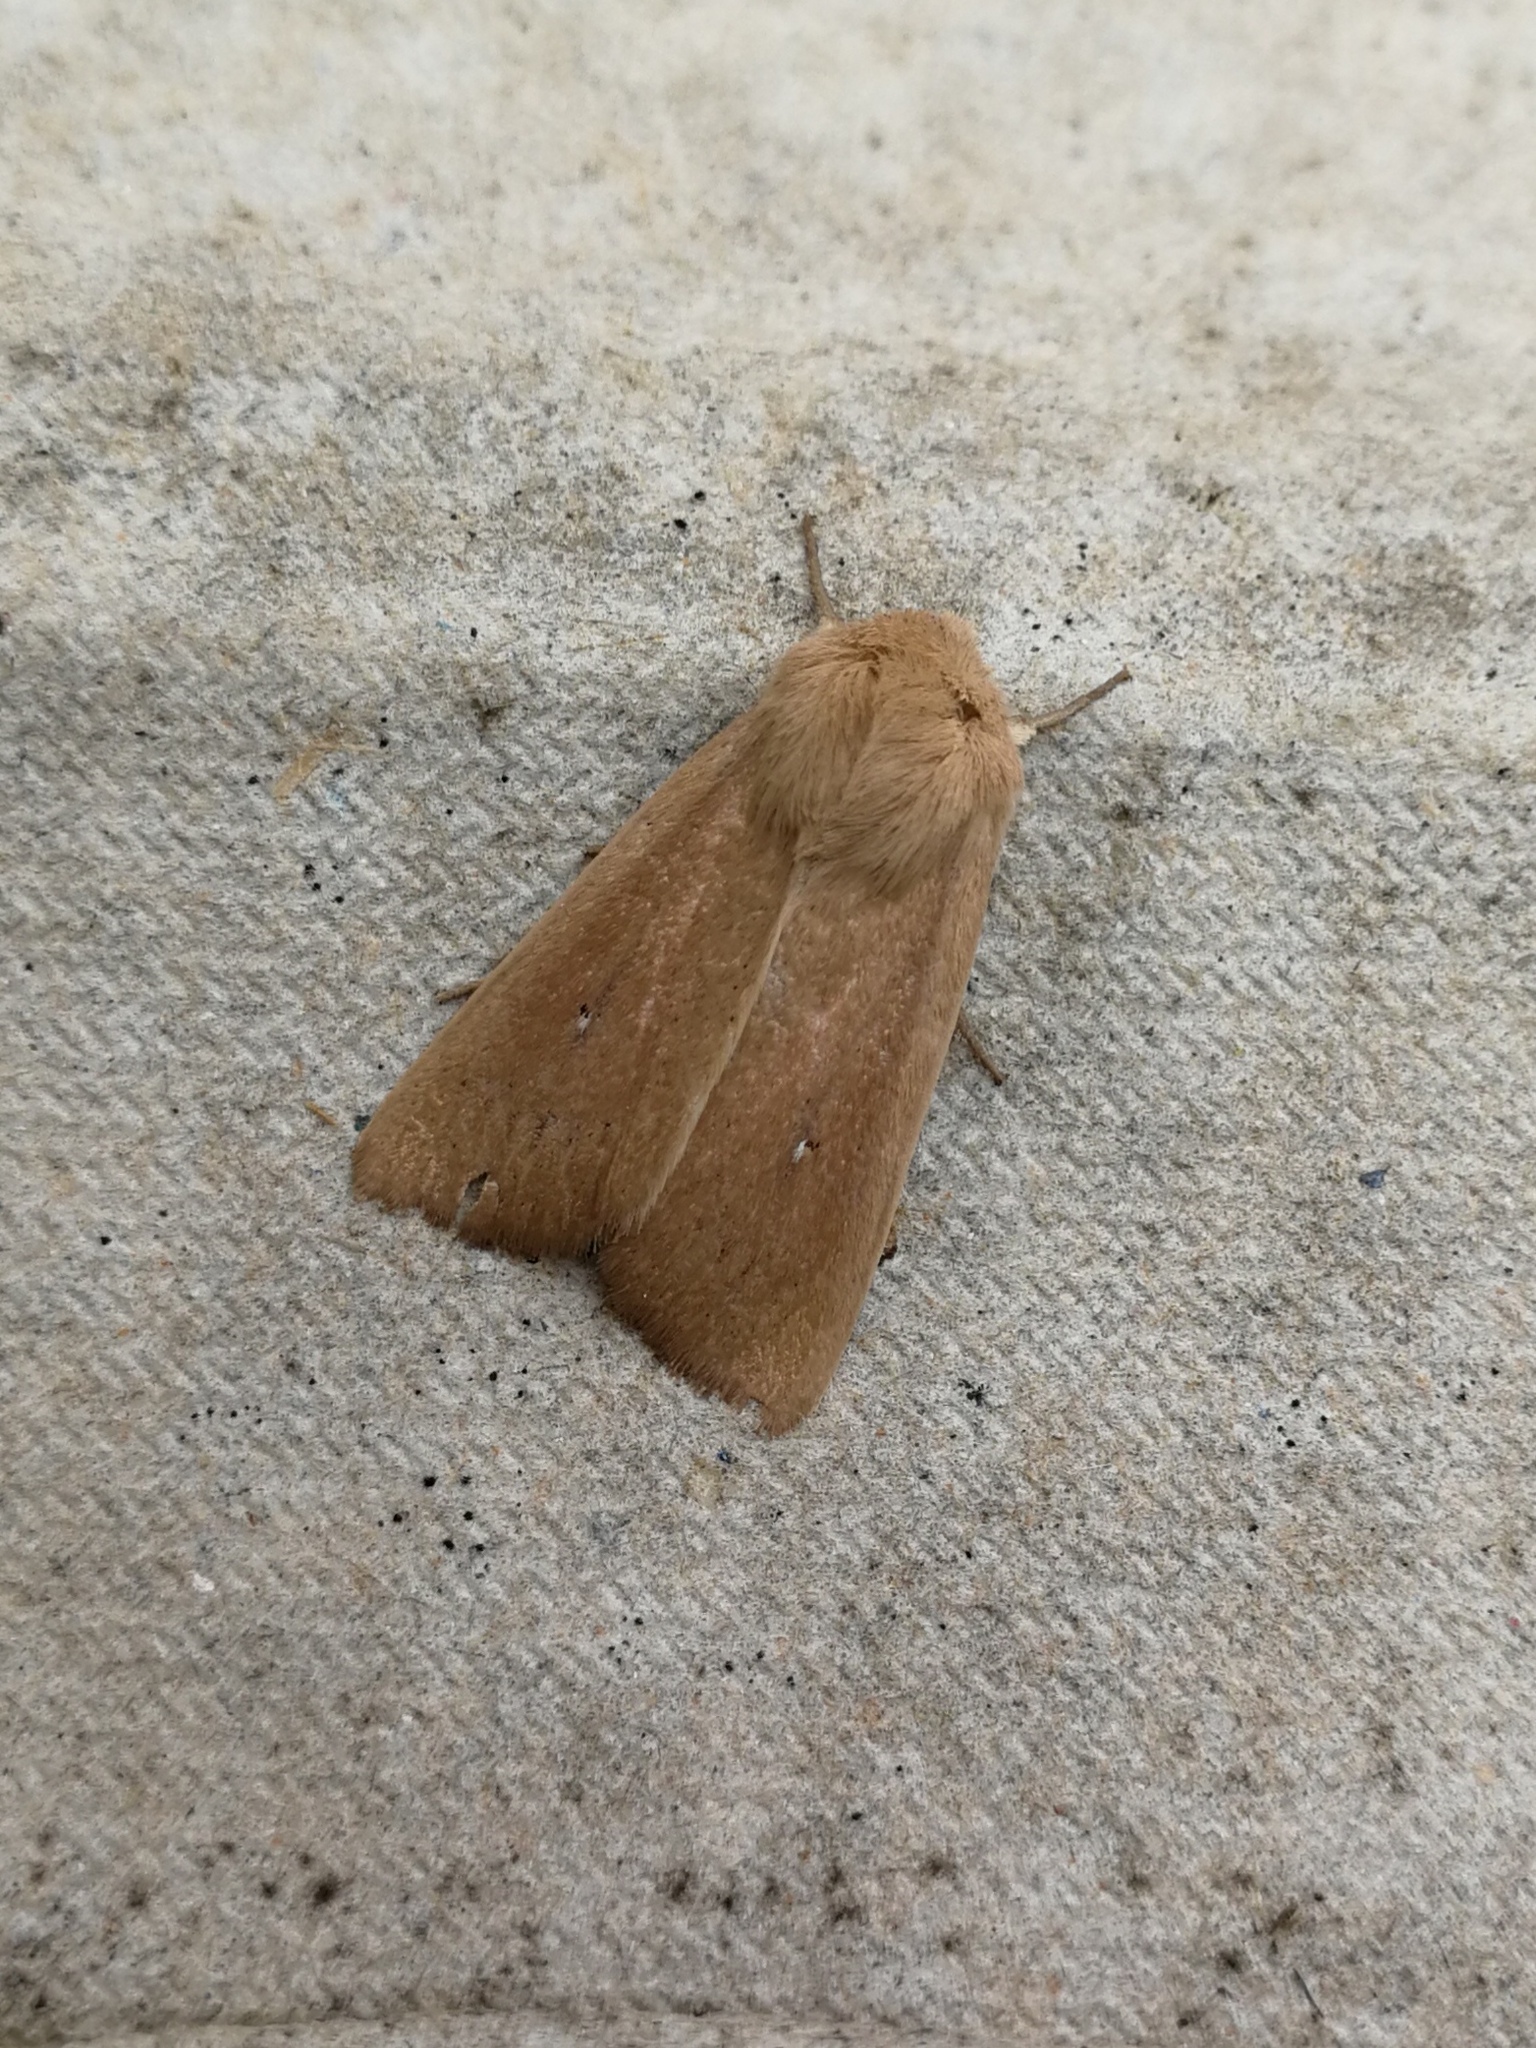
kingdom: Animalia
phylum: Arthropoda
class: Insecta
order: Lepidoptera
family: Noctuidae
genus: Mythimna
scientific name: Mythimna sicula
